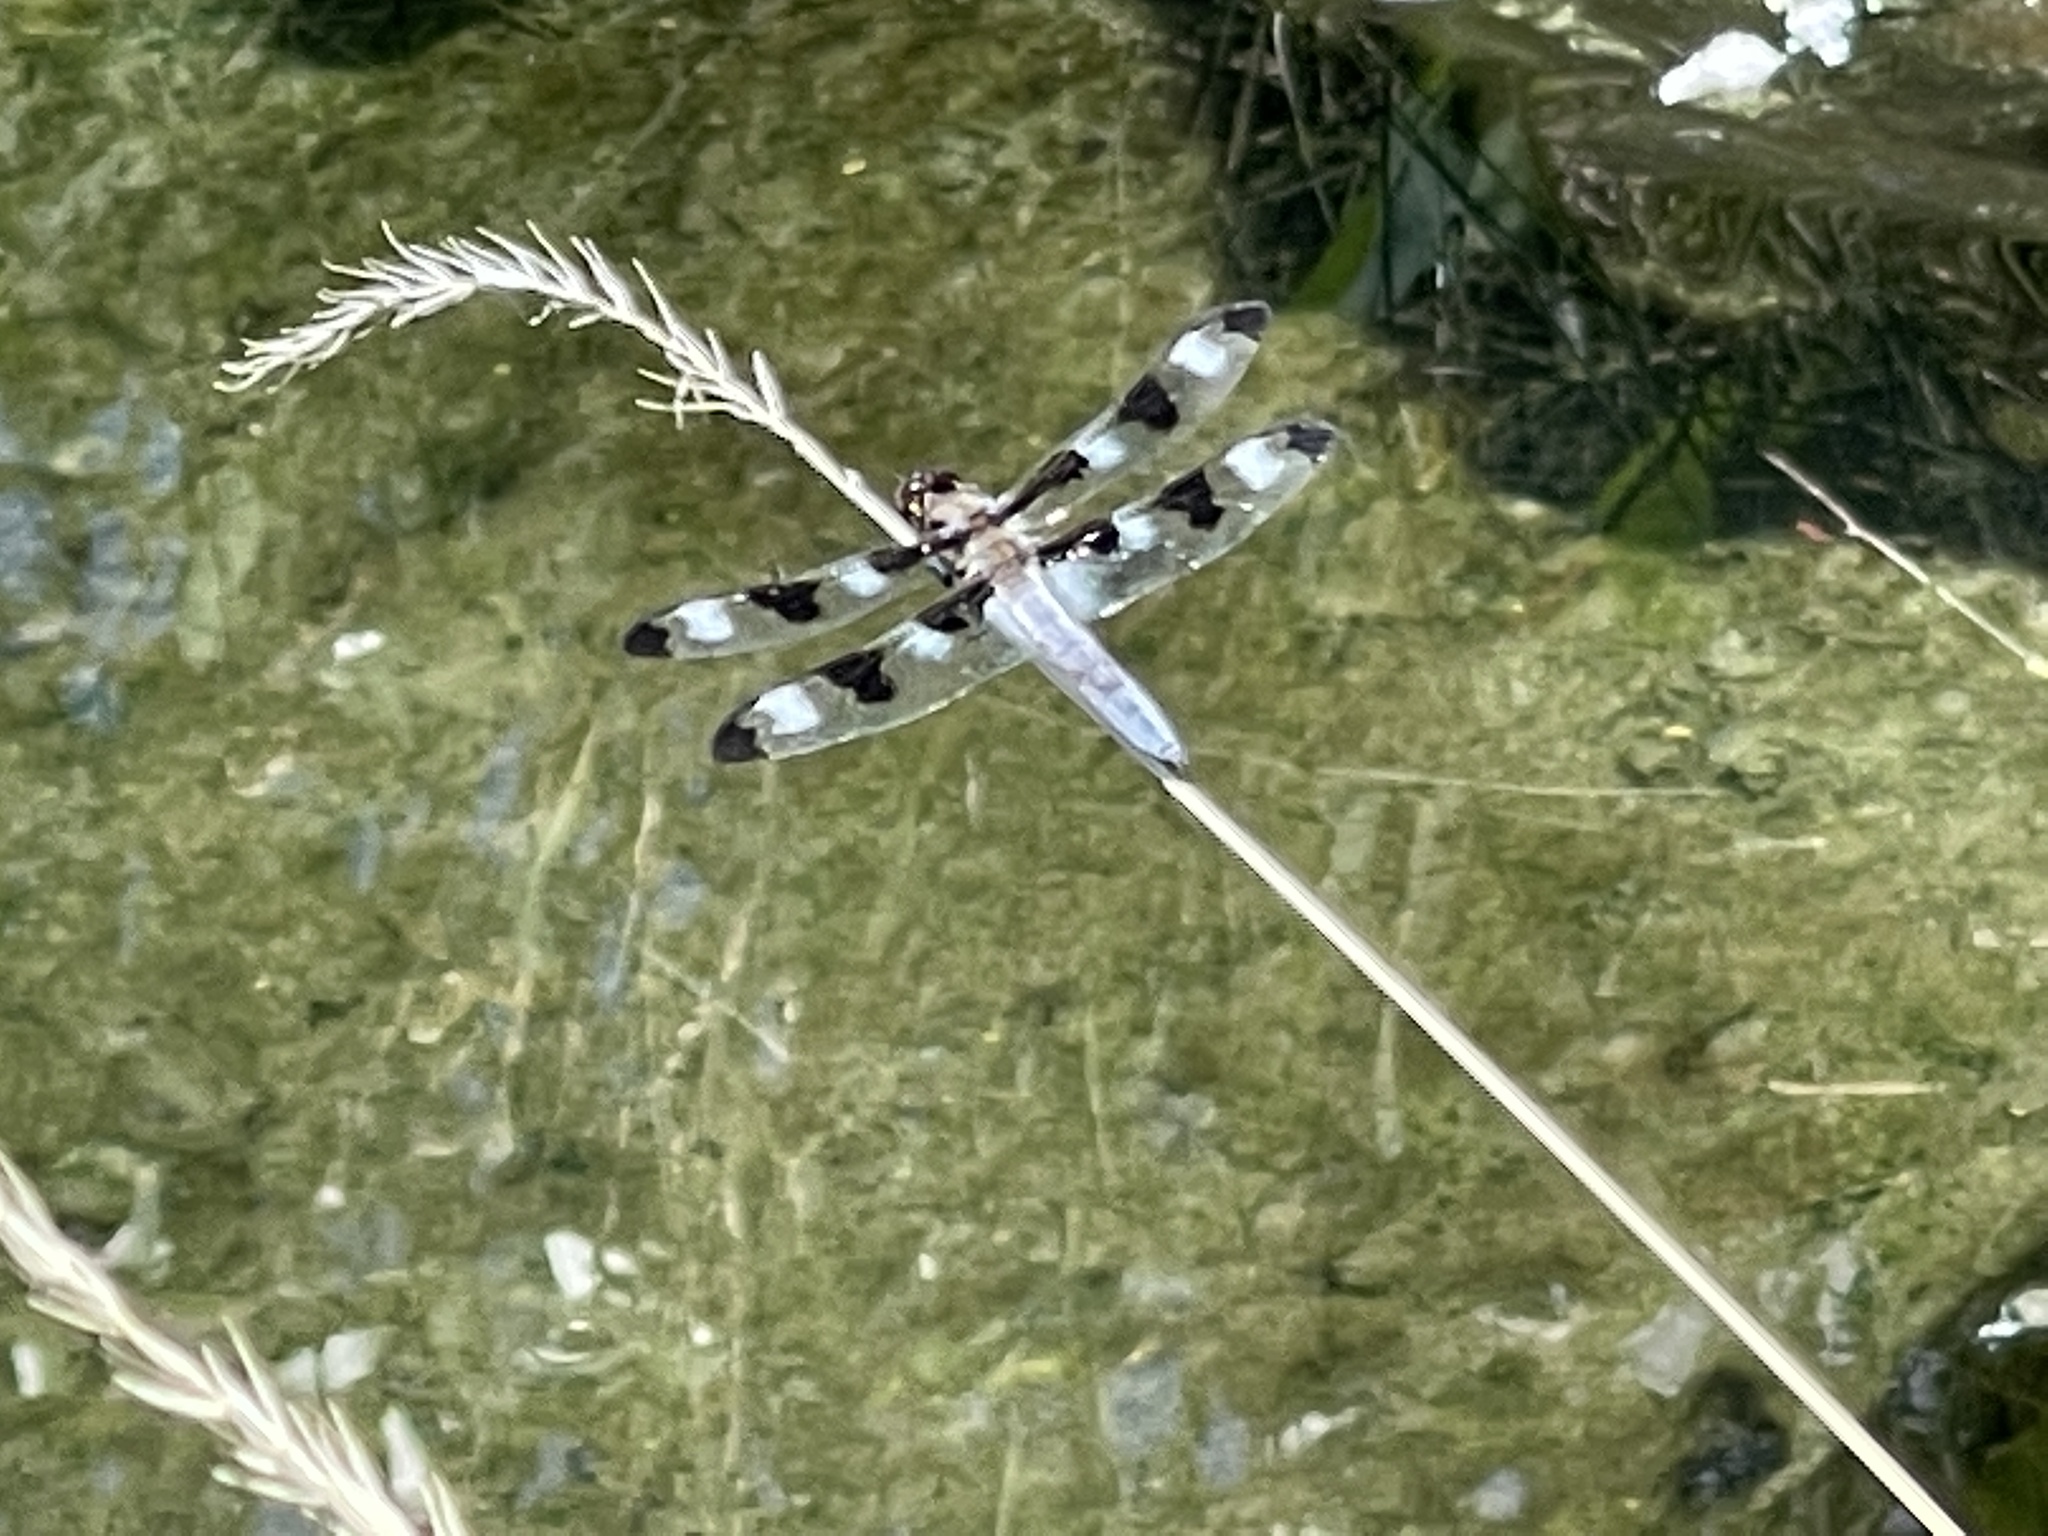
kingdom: Animalia
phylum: Arthropoda
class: Insecta
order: Odonata
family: Libellulidae
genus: Libellula
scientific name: Libellula pulchella
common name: Twelve-spotted skimmer
